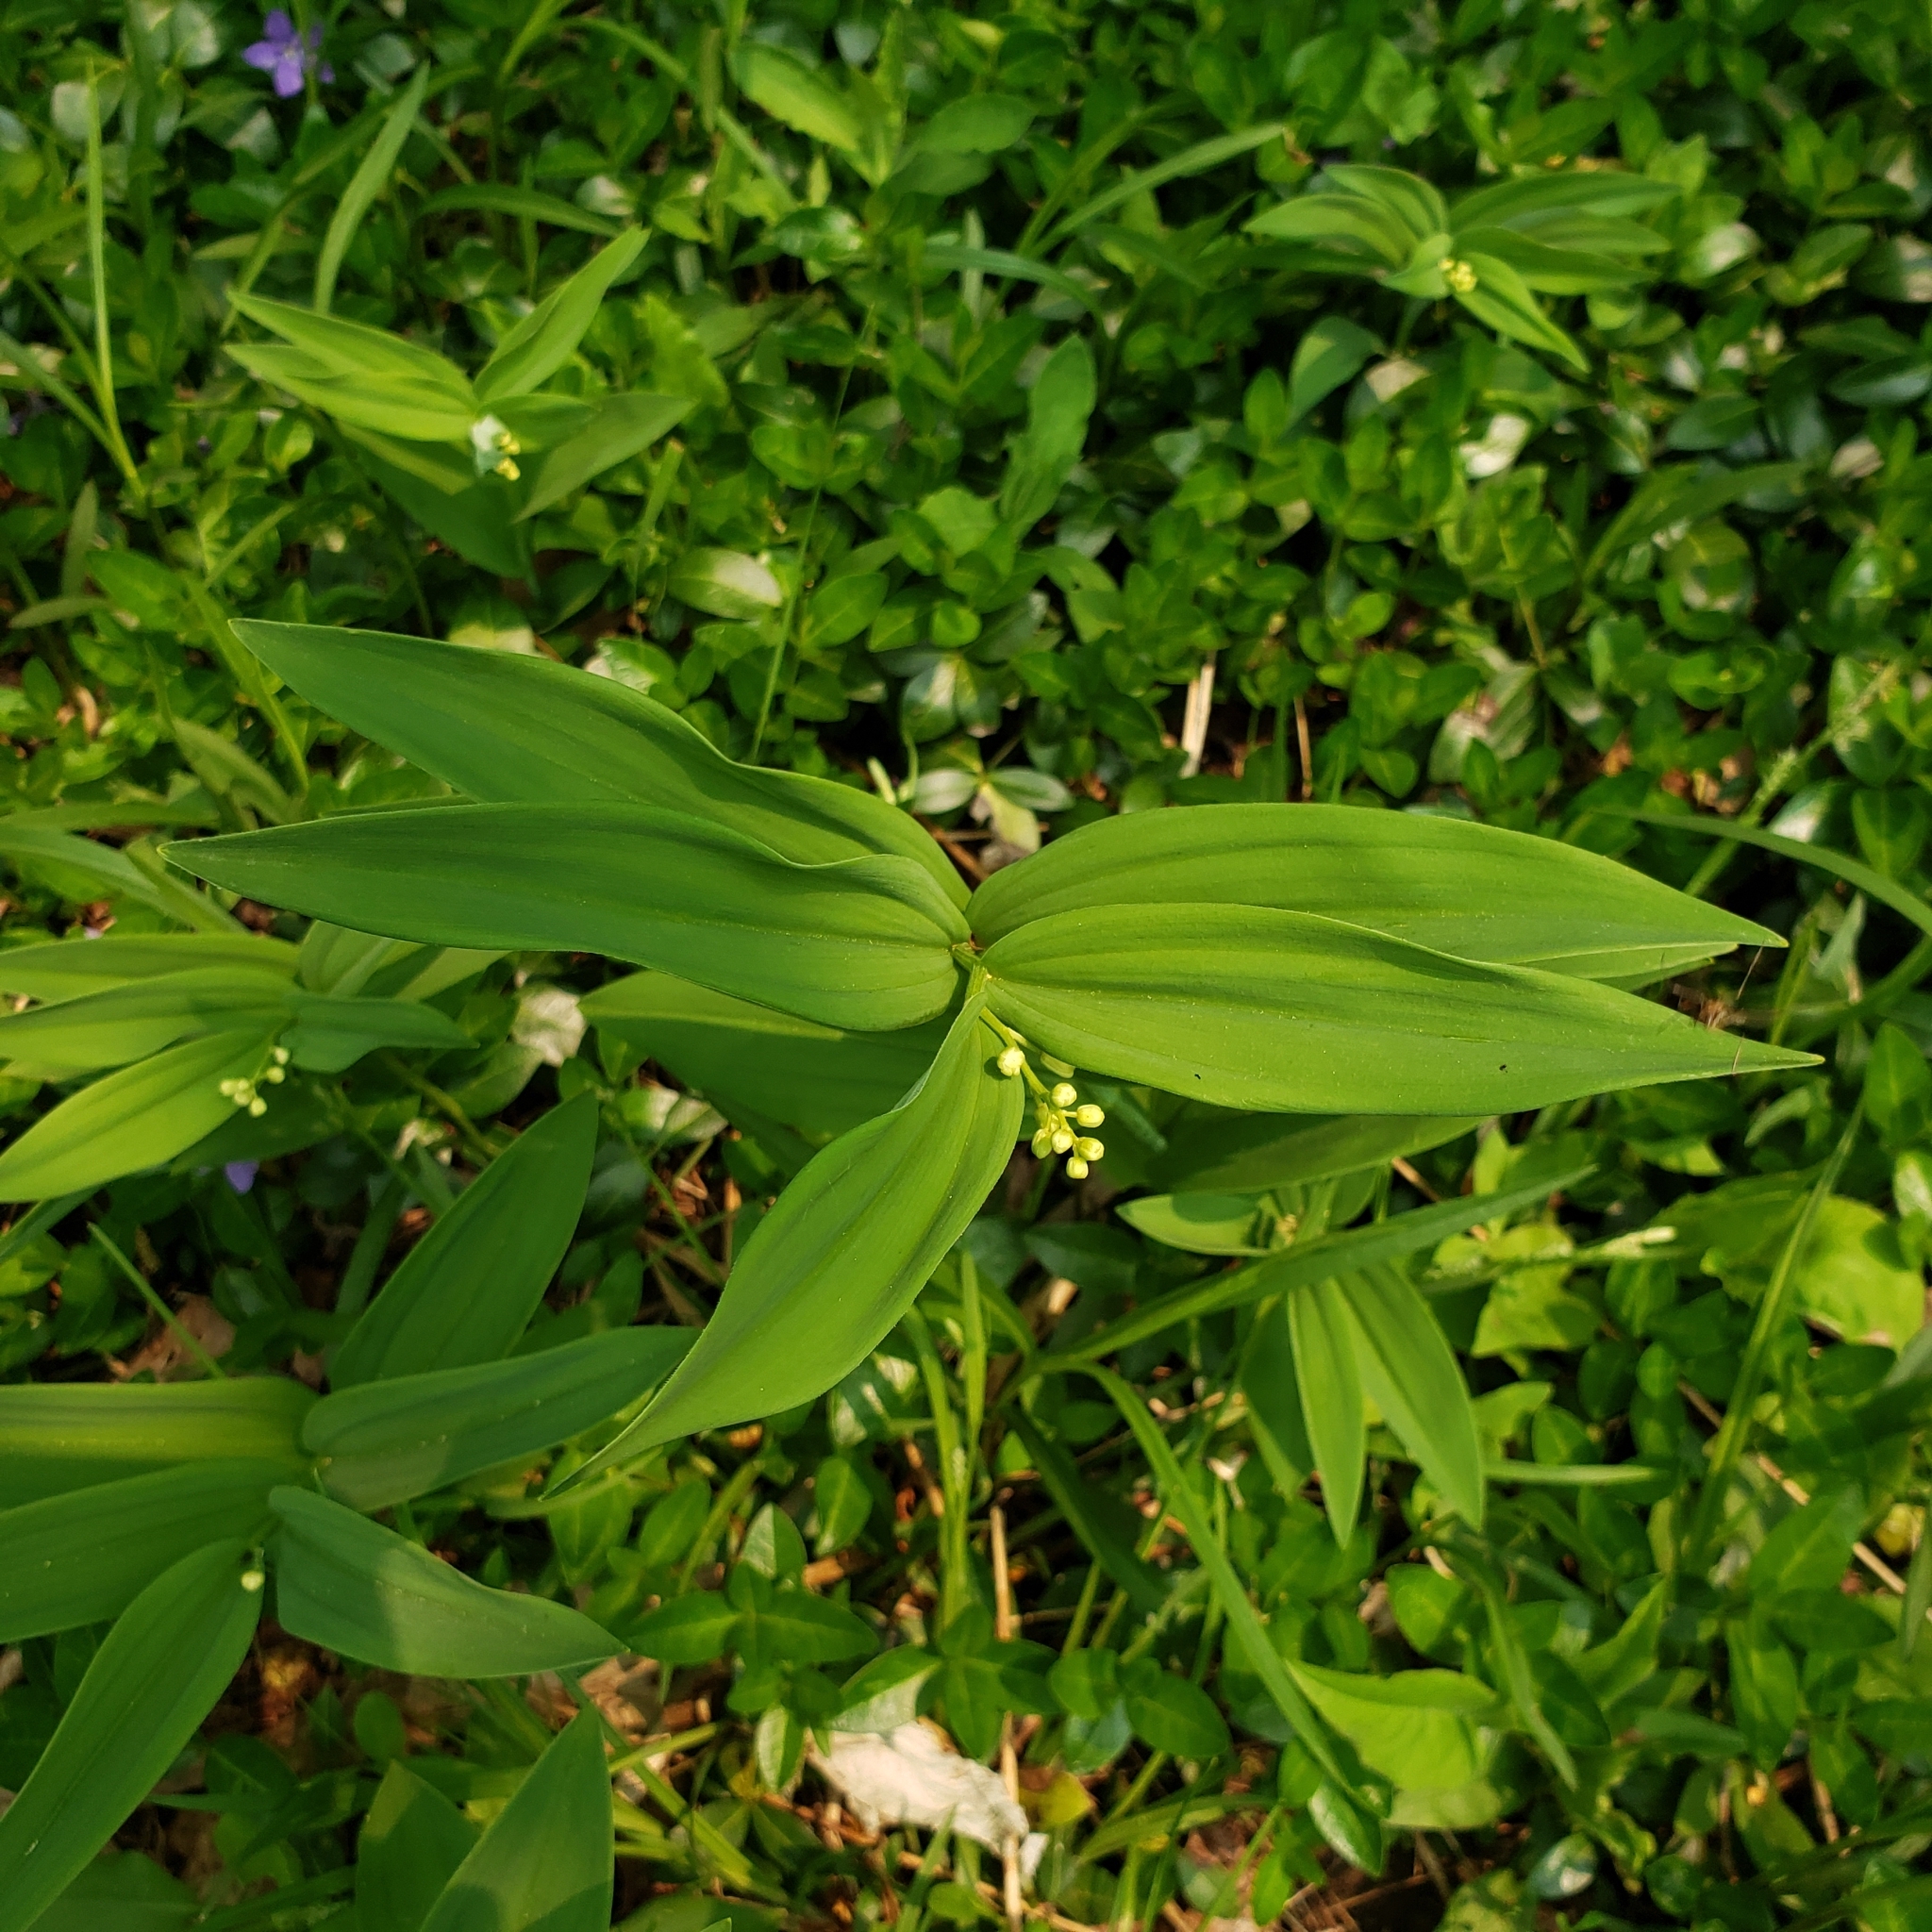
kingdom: Plantae
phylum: Tracheophyta
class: Liliopsida
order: Asparagales
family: Asparagaceae
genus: Maianthemum
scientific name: Maianthemum stellatum
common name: Little false solomon's seal
